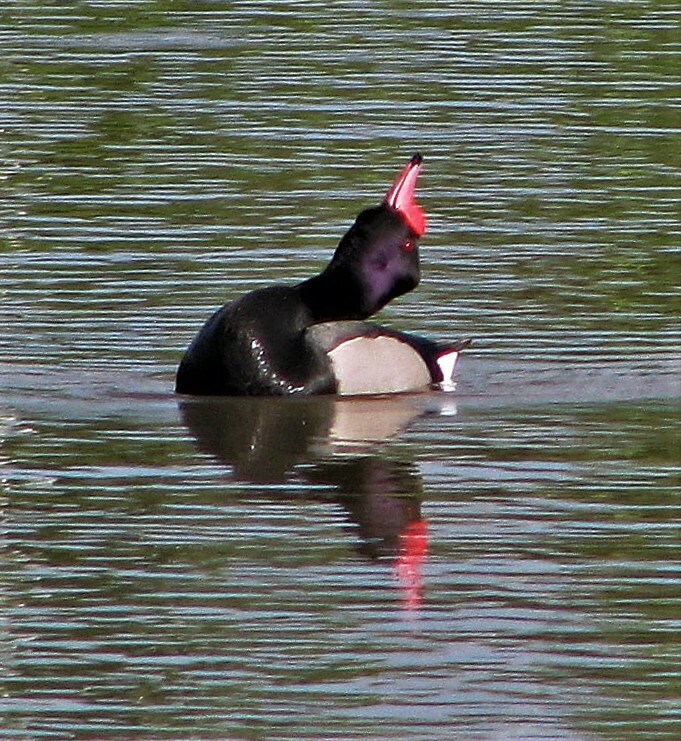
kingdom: Animalia
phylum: Chordata
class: Aves
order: Anseriformes
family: Anatidae
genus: Netta
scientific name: Netta peposaca
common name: Rosy-billed pochard
